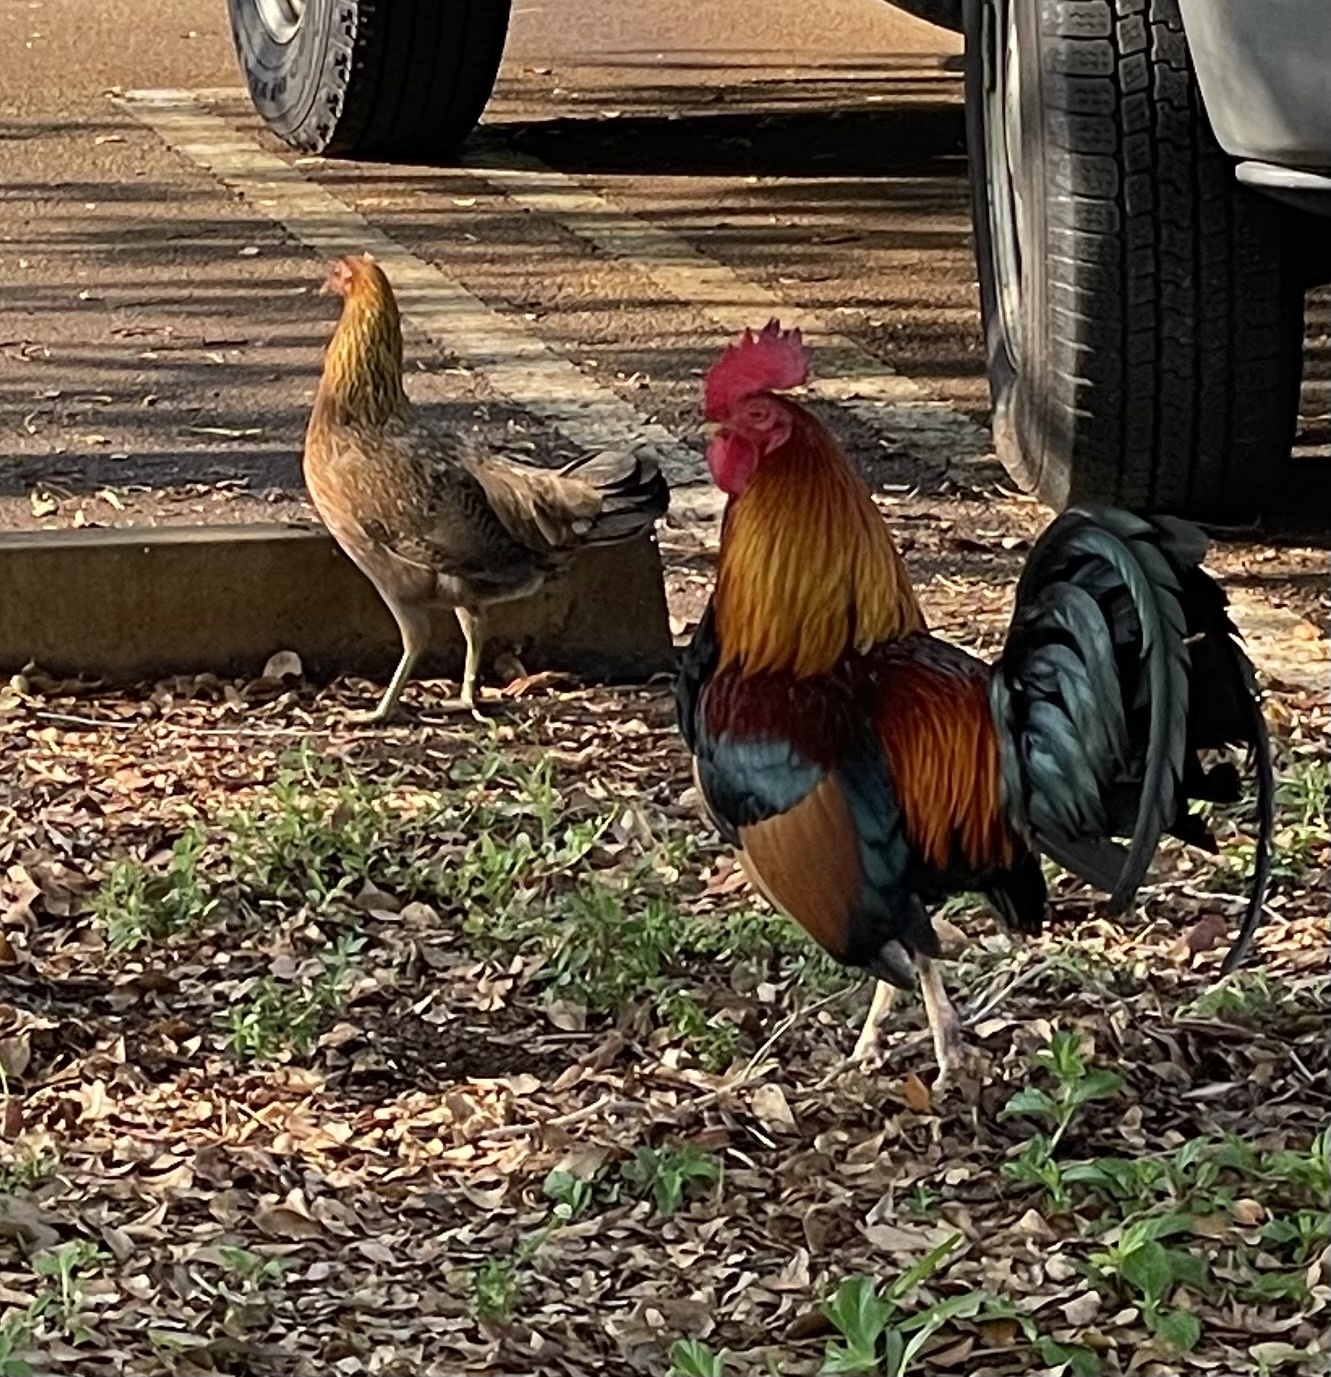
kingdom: Animalia
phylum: Chordata
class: Aves
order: Galliformes
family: Phasianidae
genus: Gallus
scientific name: Gallus gallus
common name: Red junglefowl
